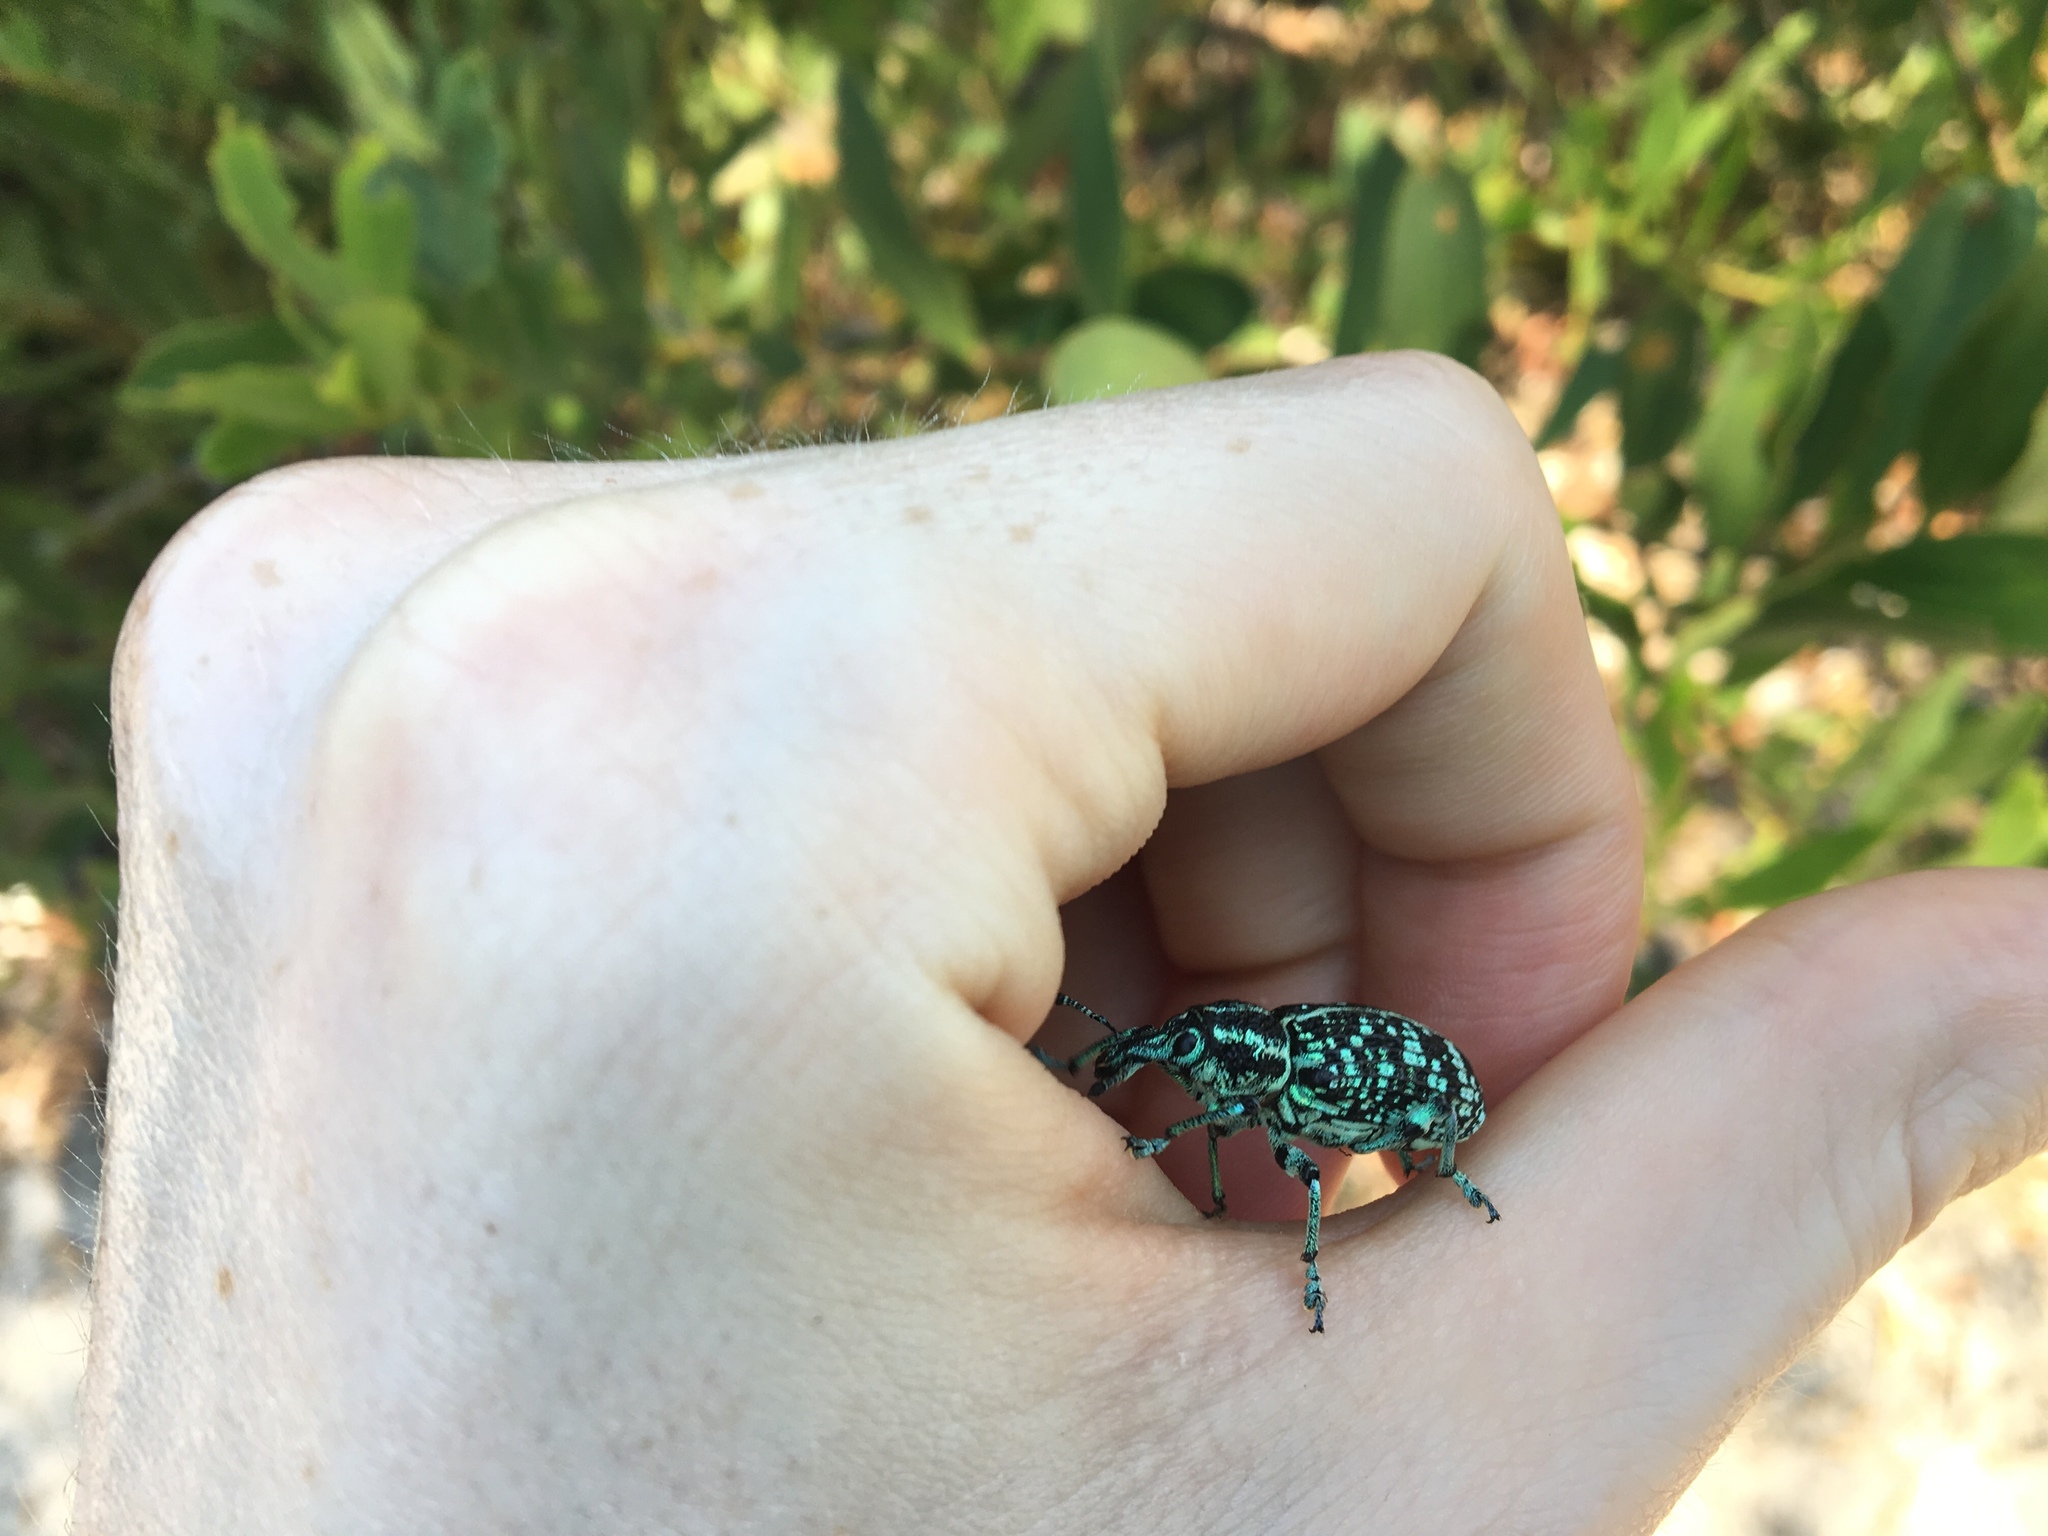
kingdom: Animalia
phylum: Arthropoda
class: Insecta
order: Coleoptera
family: Curculionidae
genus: Chrysolopus
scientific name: Chrysolopus spectabilis
